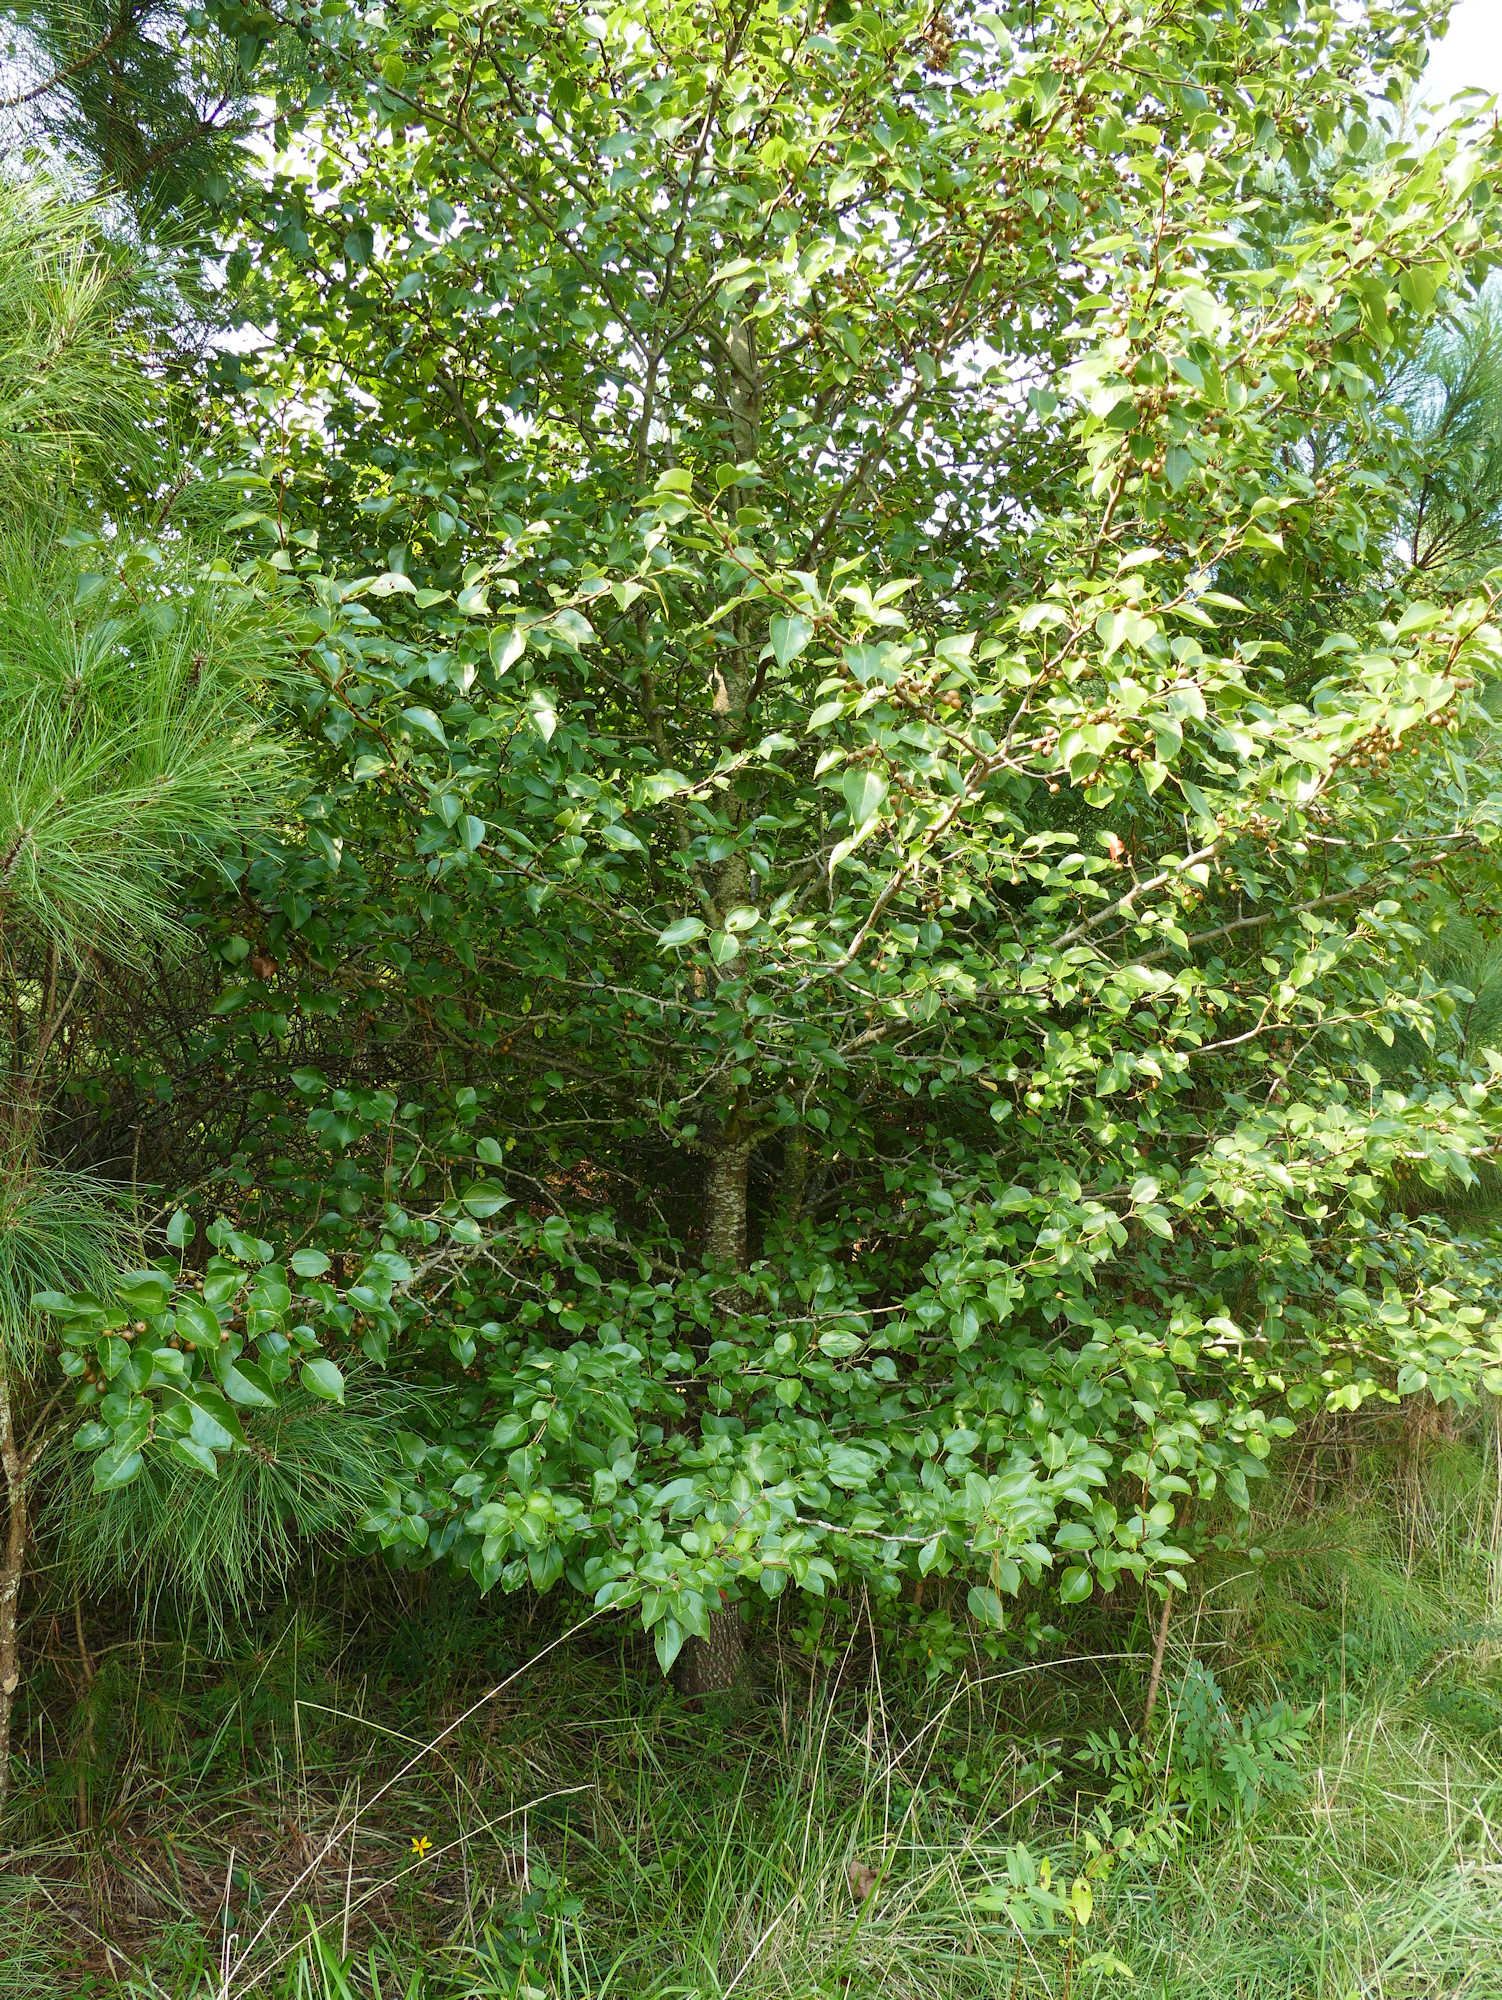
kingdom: Plantae
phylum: Tracheophyta
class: Magnoliopsida
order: Rosales
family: Rosaceae
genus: Pyrus
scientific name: Pyrus calleryana
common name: Callery pear
